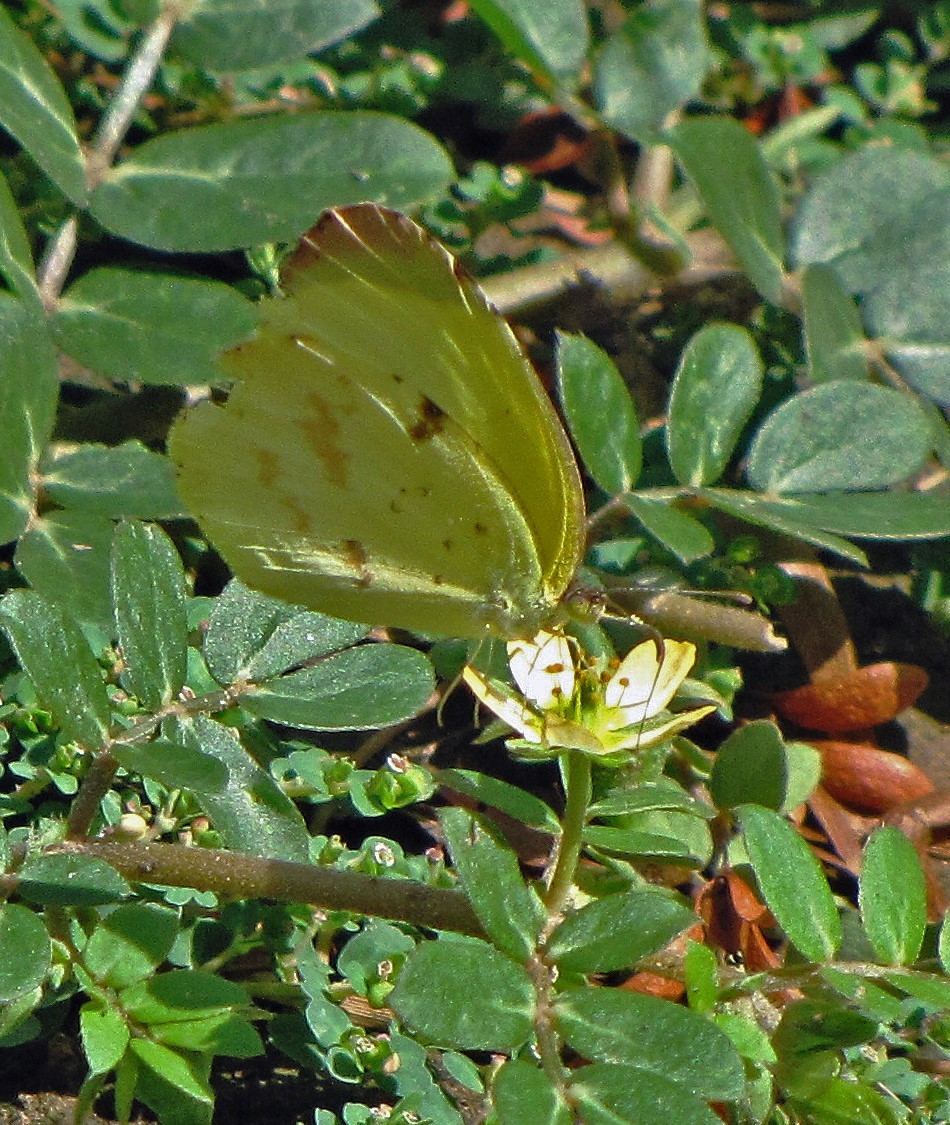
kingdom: Animalia
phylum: Arthropoda
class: Insecta
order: Lepidoptera
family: Pieridae
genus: Teriocolias
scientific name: Teriocolias
